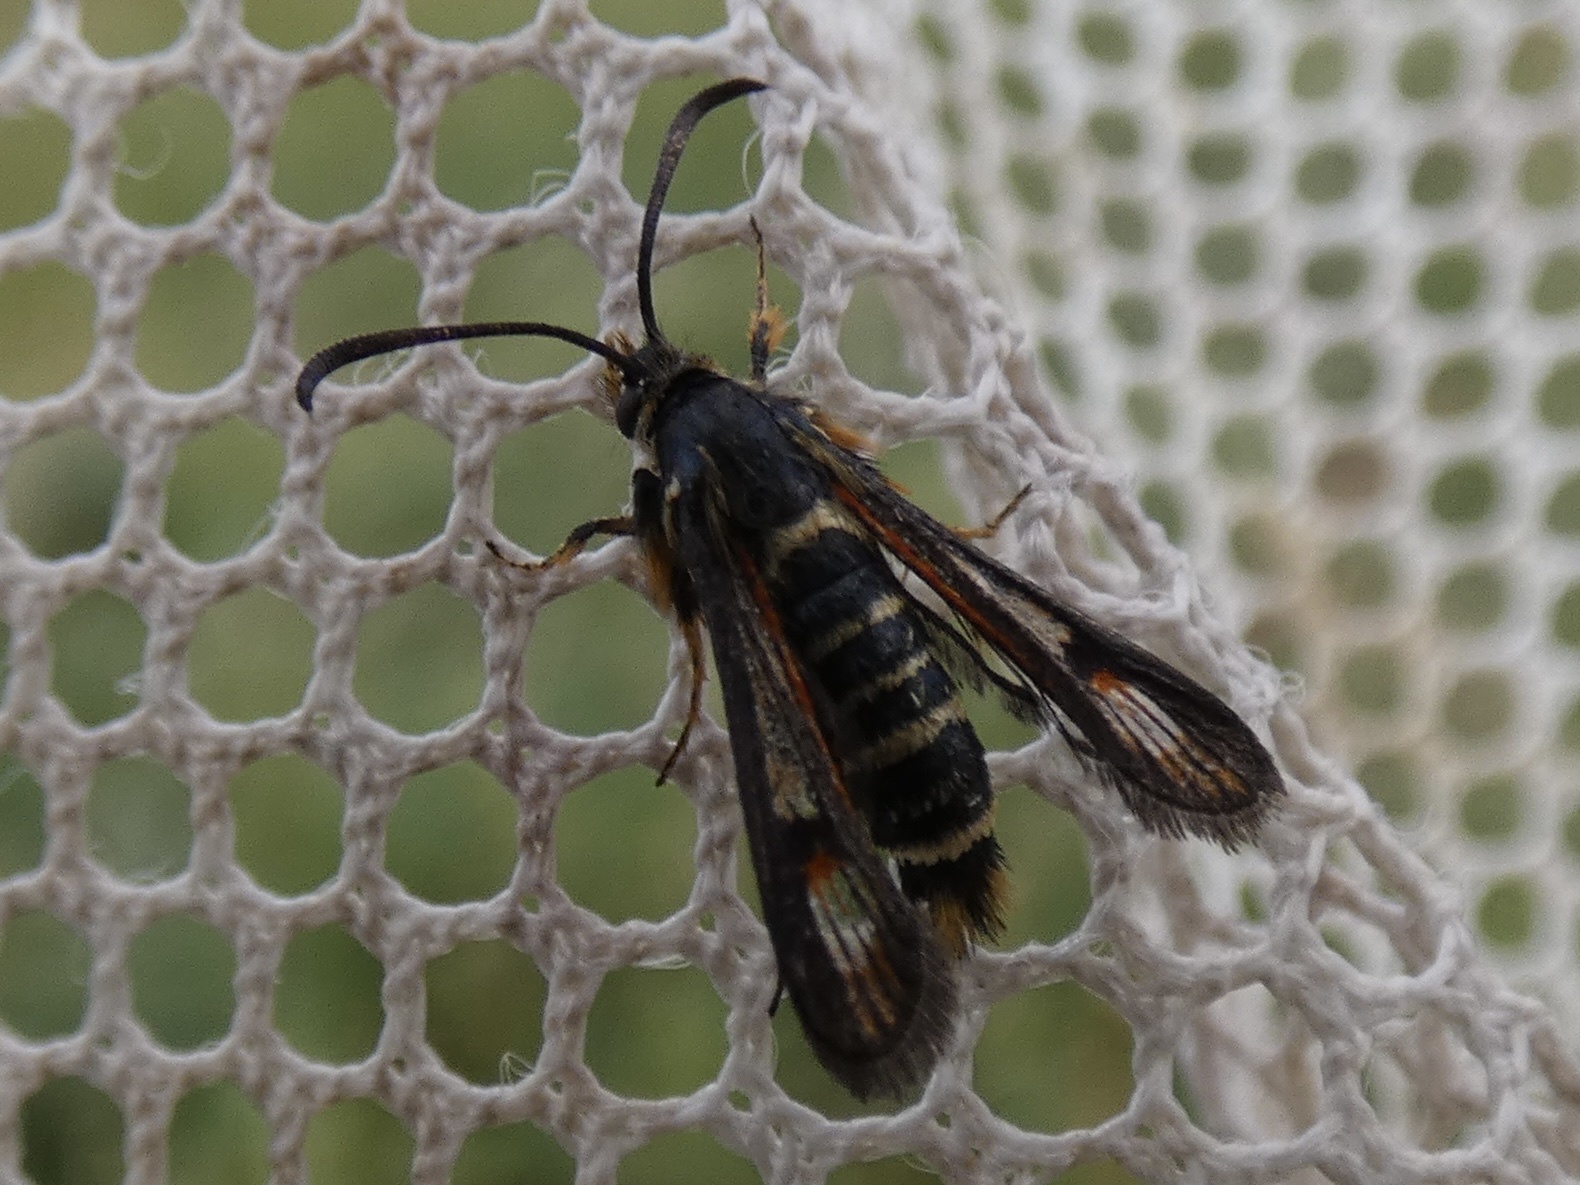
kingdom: Animalia
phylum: Arthropoda
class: Insecta
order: Lepidoptera
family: Sesiidae
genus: Bembecia
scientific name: Bembecia ichneumoniformis
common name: Six-belted clearwing
